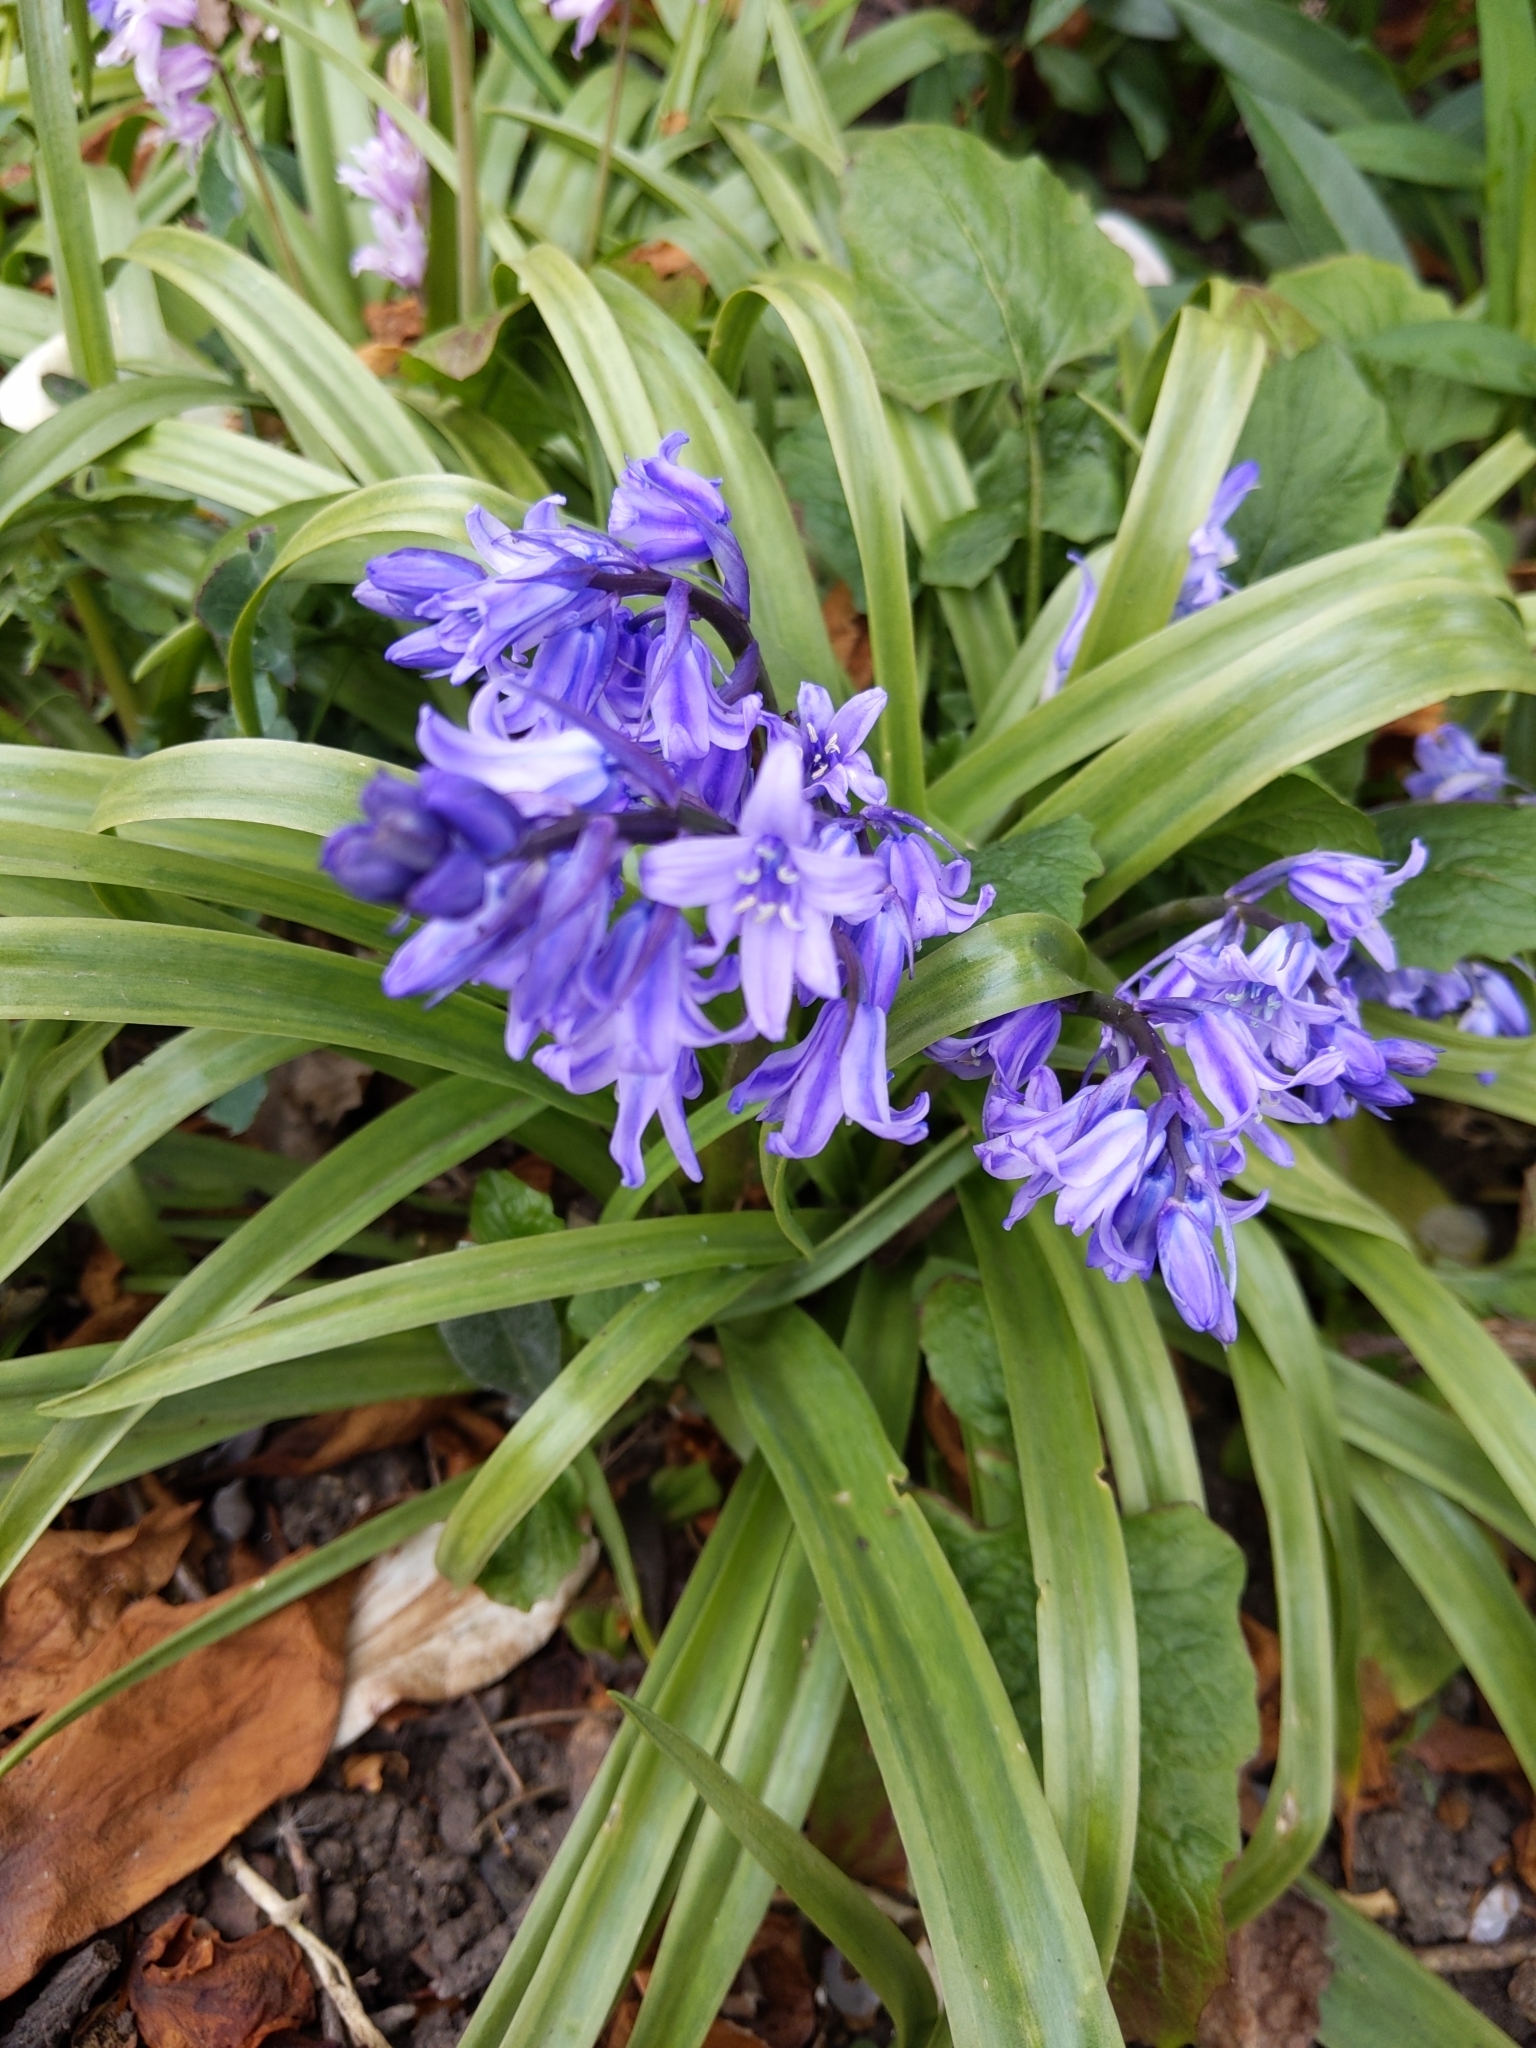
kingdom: Plantae
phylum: Tracheophyta
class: Liliopsida
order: Asparagales
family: Asparagaceae
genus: Hyacinthoides
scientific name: Hyacinthoides hispanica
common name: Spanish bluebell
